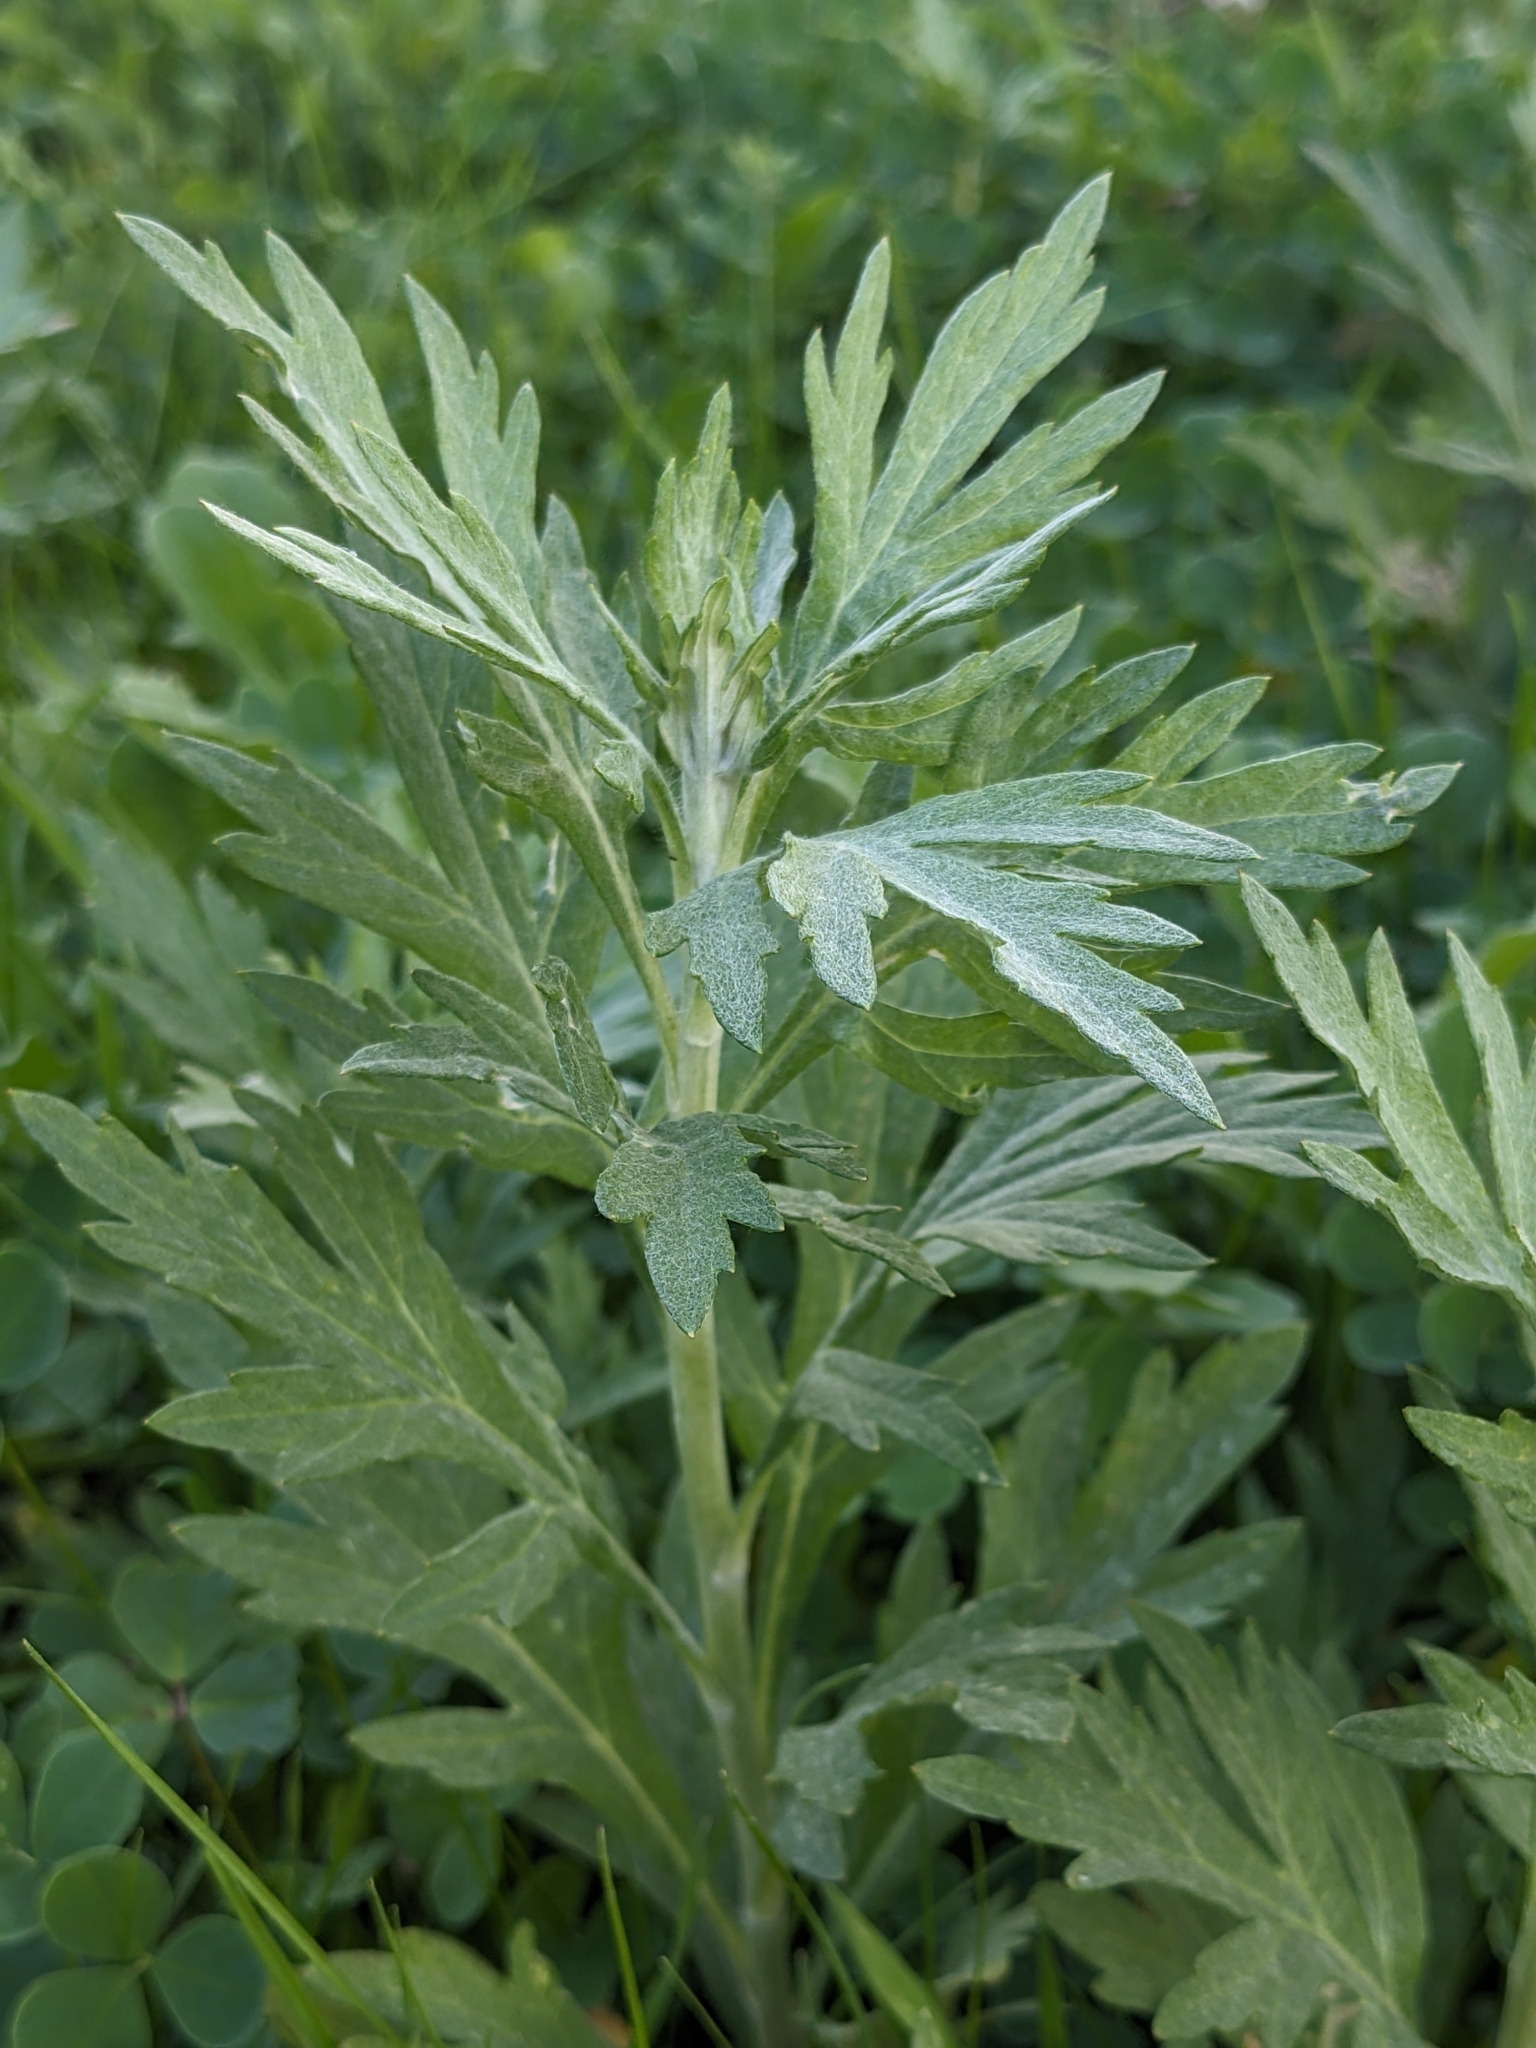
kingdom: Plantae
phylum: Tracheophyta
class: Magnoliopsida
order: Asterales
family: Asteraceae
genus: Artemisia
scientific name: Artemisia douglasiana
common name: Northwest mugwort
